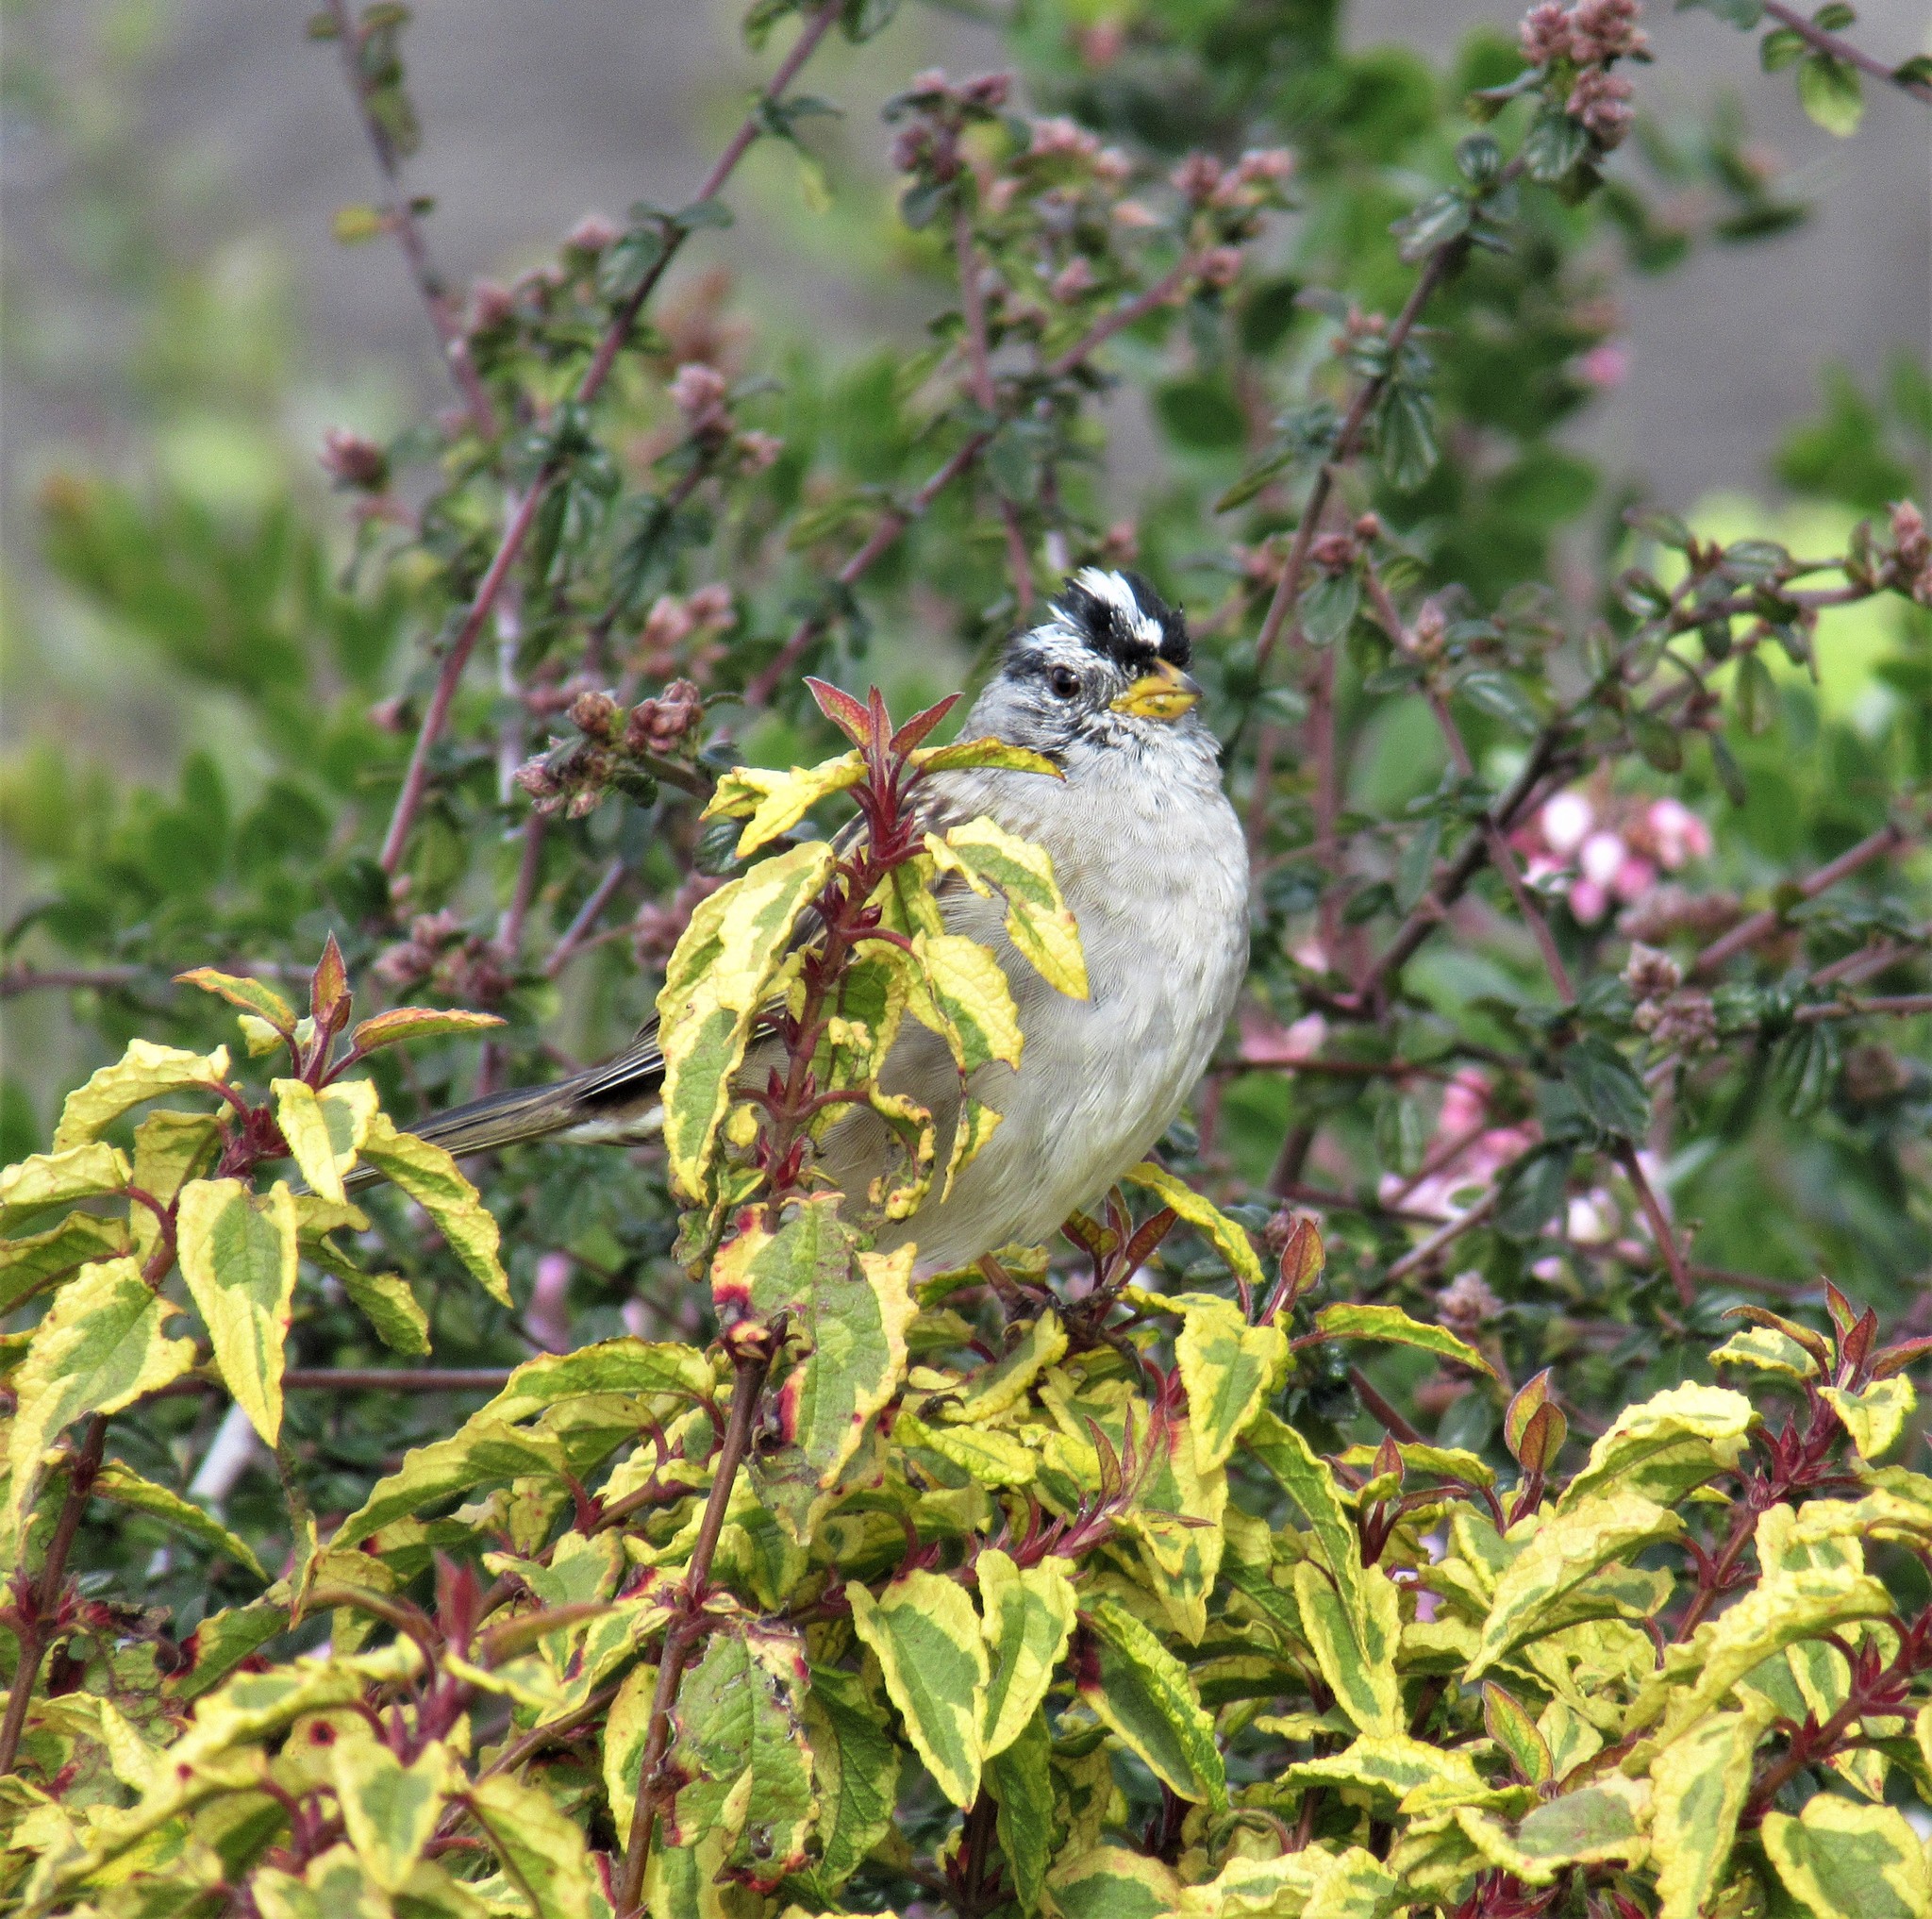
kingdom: Animalia
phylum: Chordata
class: Aves
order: Passeriformes
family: Passerellidae
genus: Zonotrichia
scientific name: Zonotrichia leucophrys
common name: White-crowned sparrow
